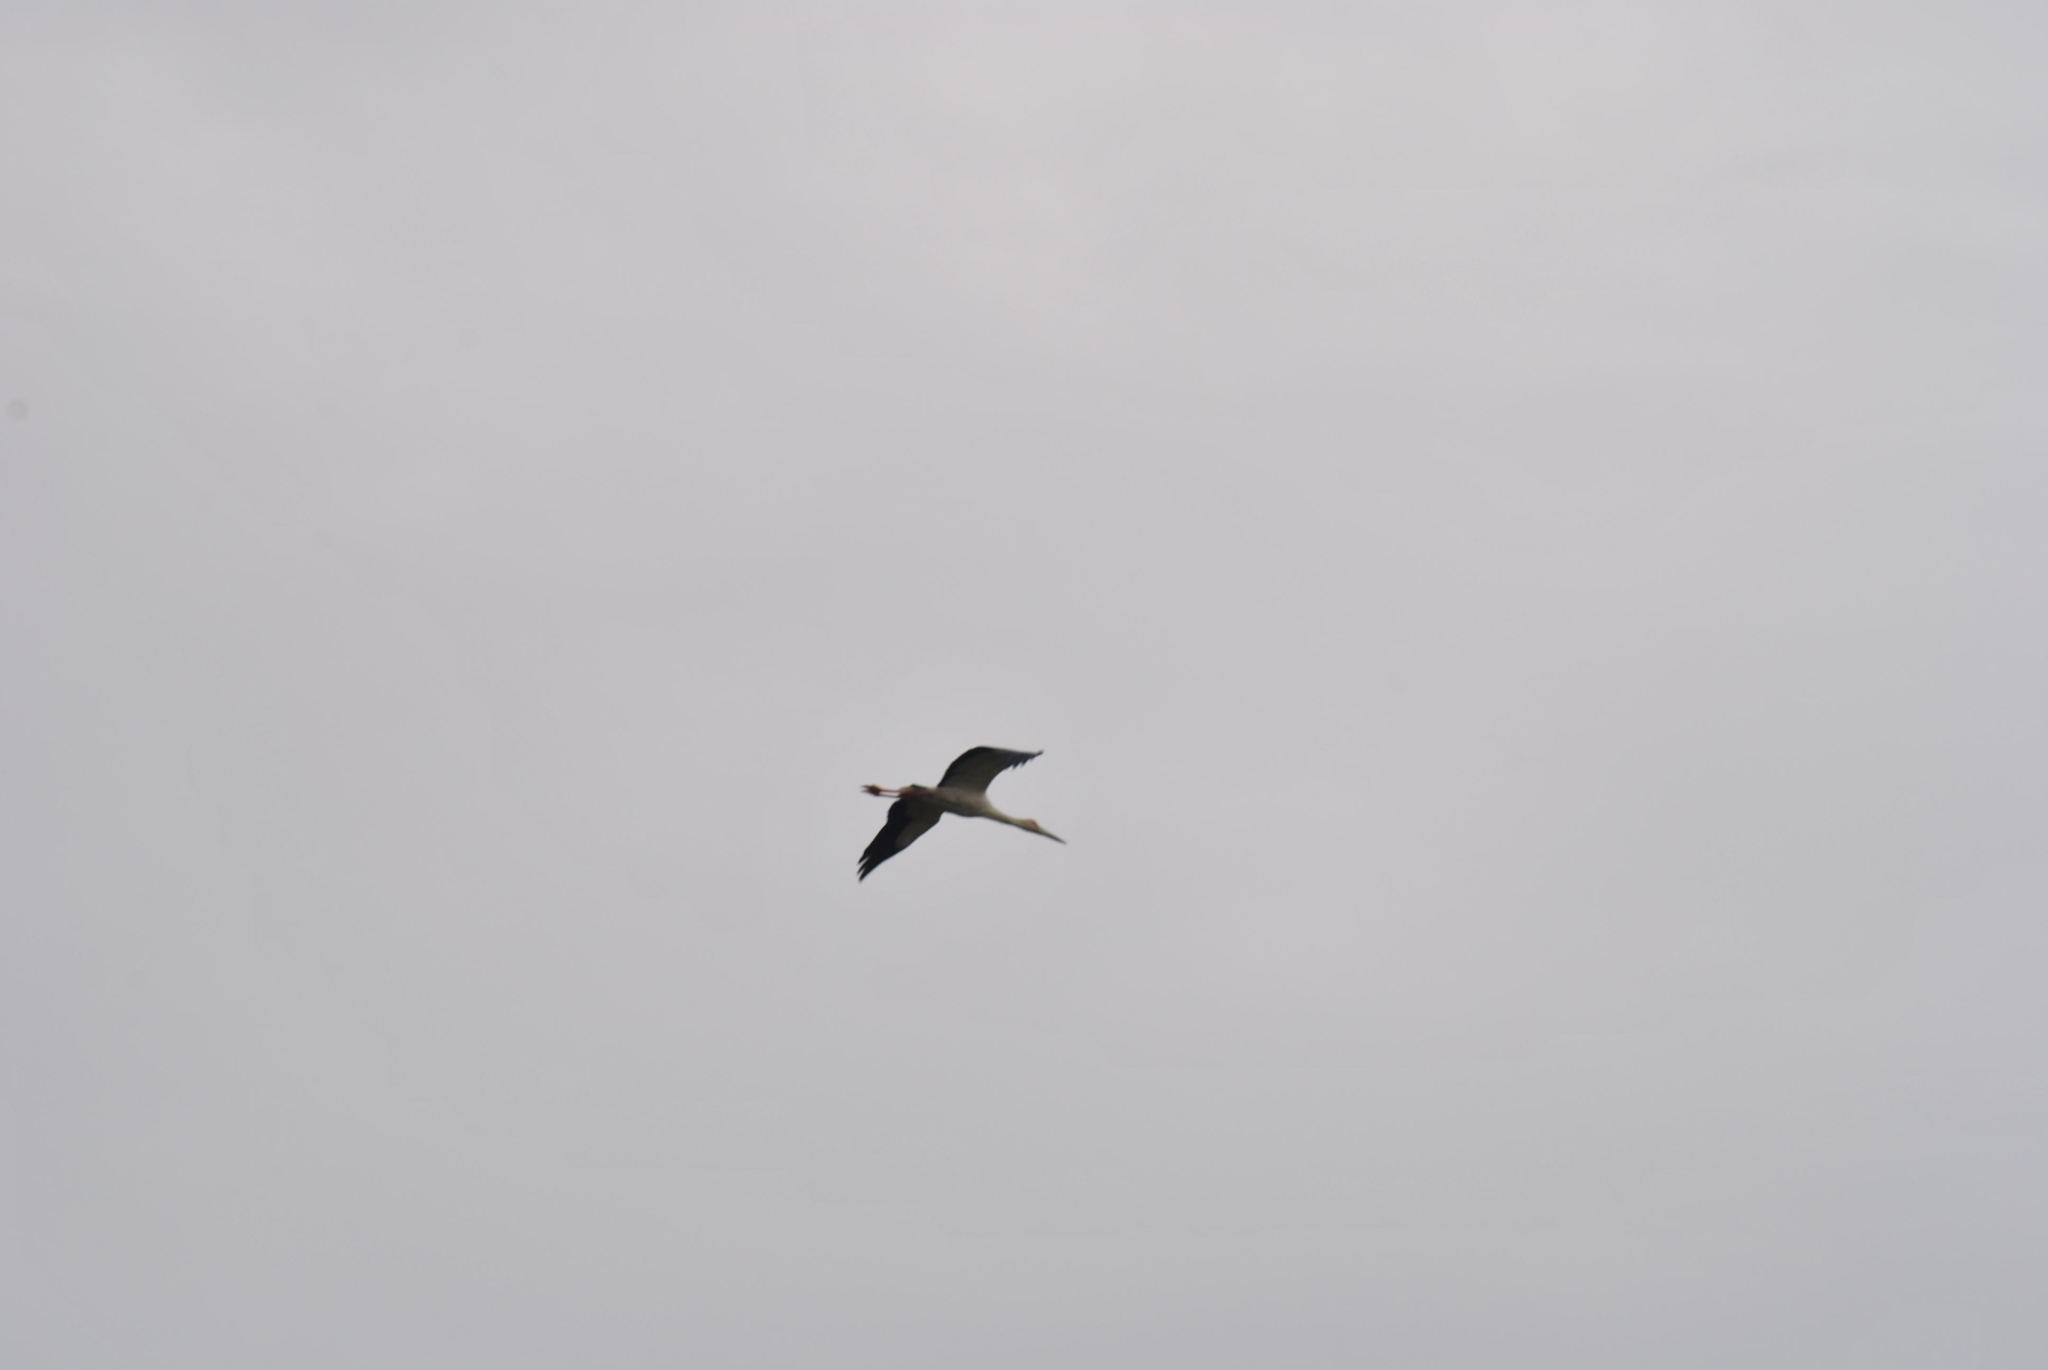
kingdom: Animalia
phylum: Chordata
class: Aves
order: Ciconiiformes
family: Ciconiidae
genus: Ciconia
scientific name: Ciconia maguari
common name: Maguari stork
